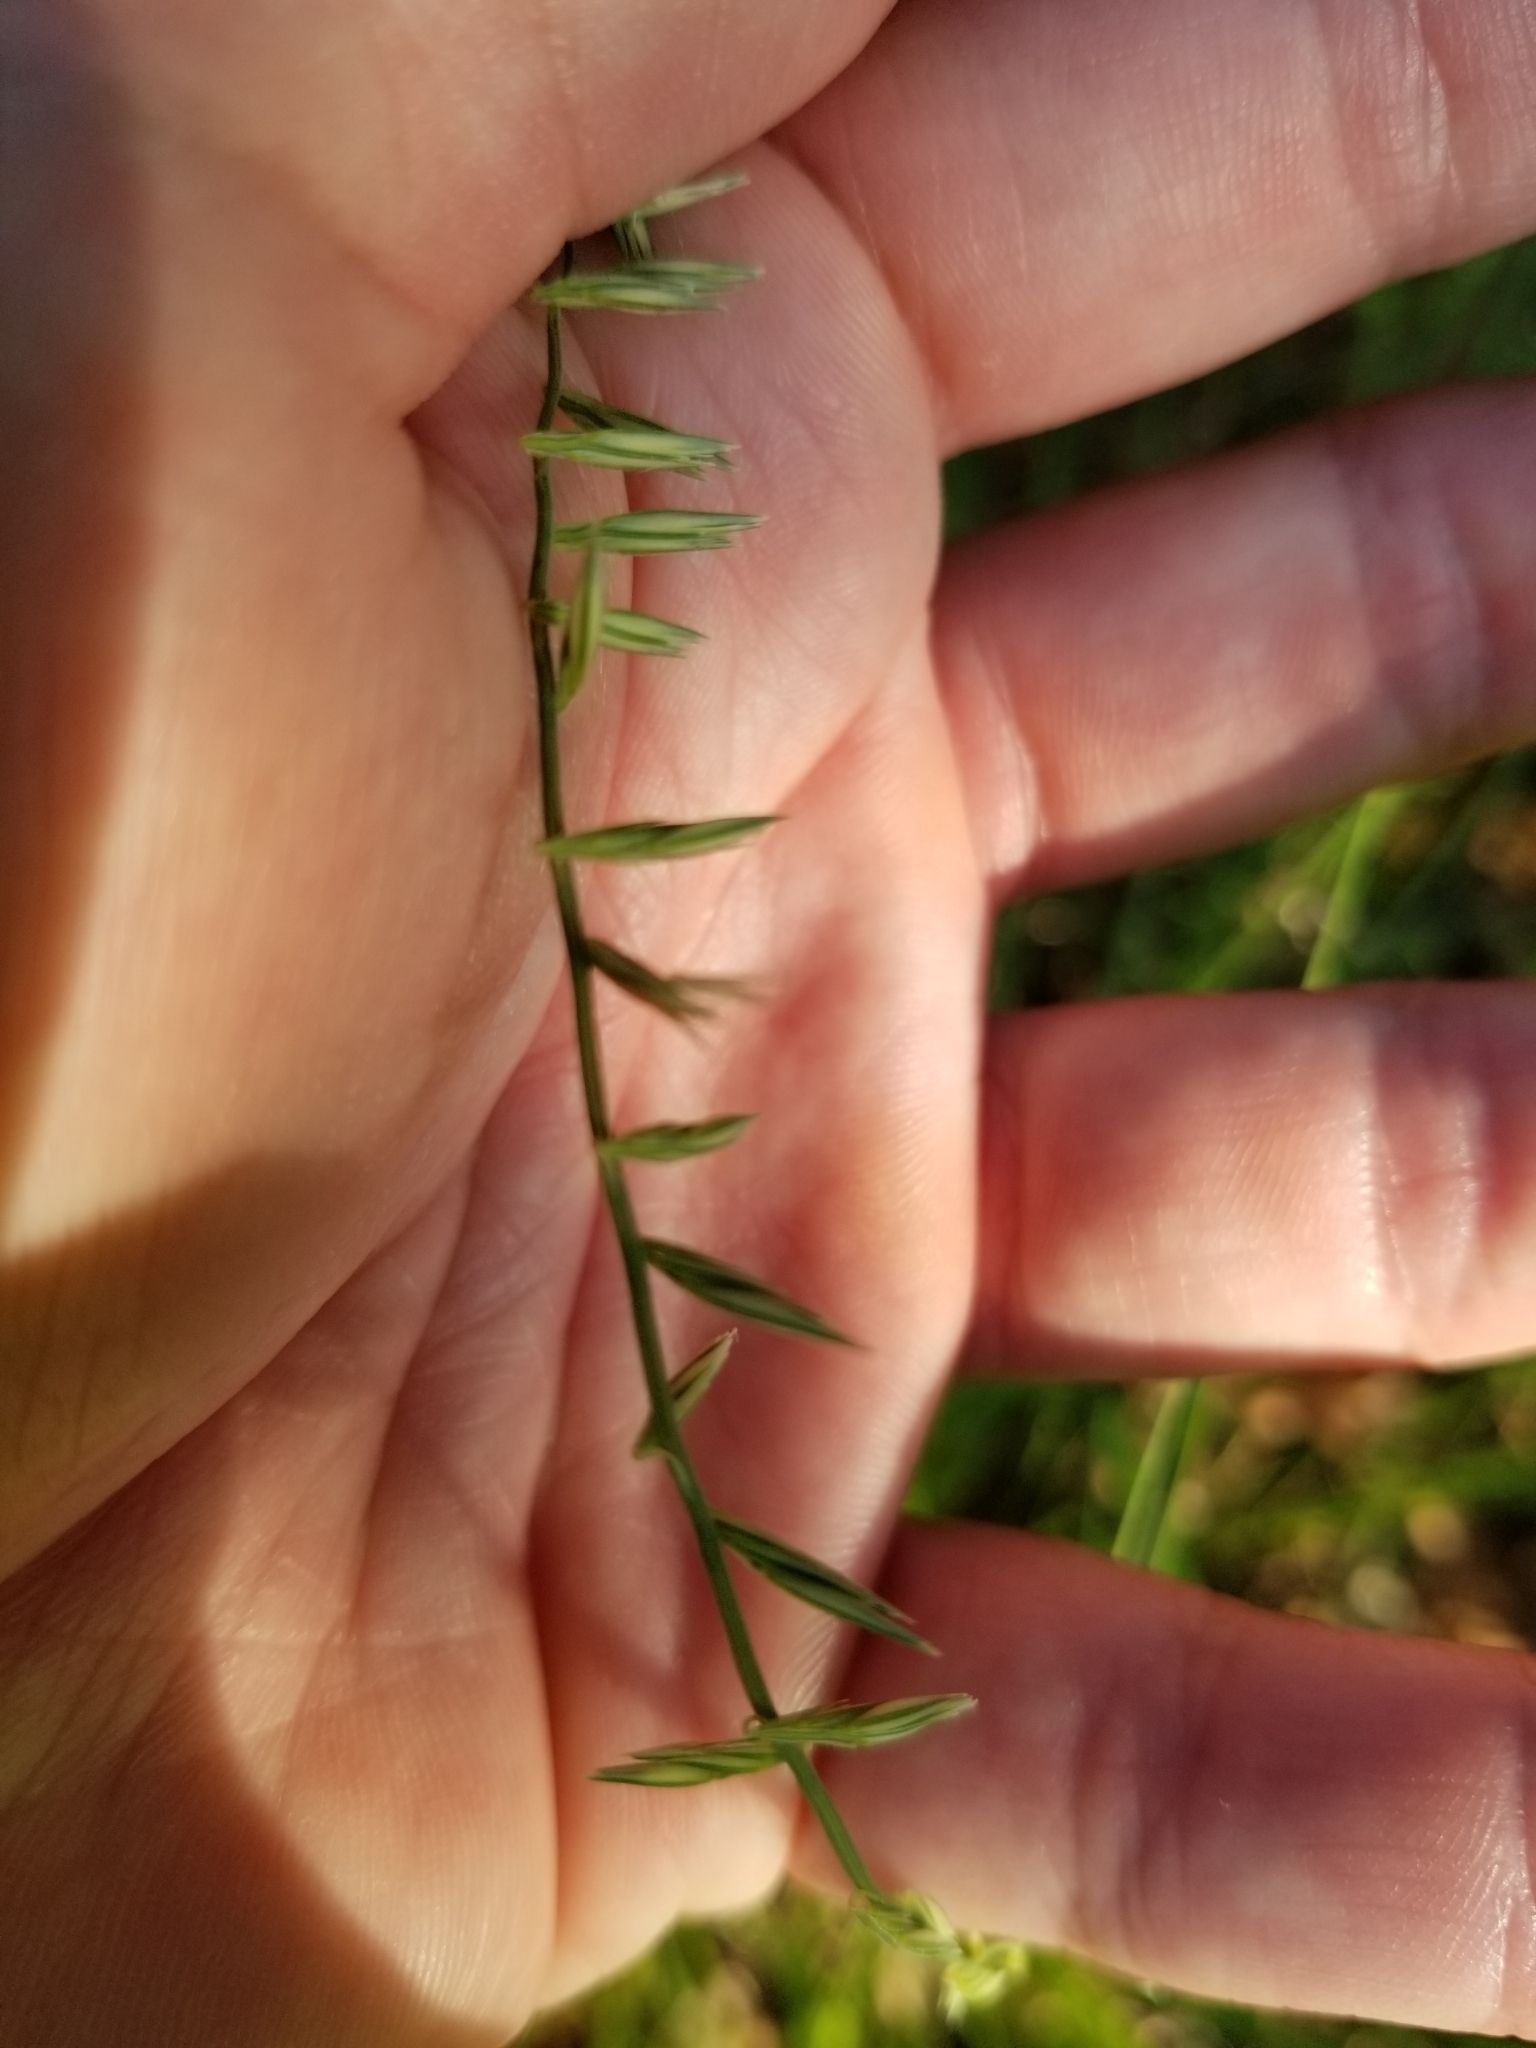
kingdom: Plantae
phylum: Tracheophyta
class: Liliopsida
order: Poales
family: Poaceae
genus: Bouteloua
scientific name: Bouteloua curtipendula
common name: Side-oats grama
